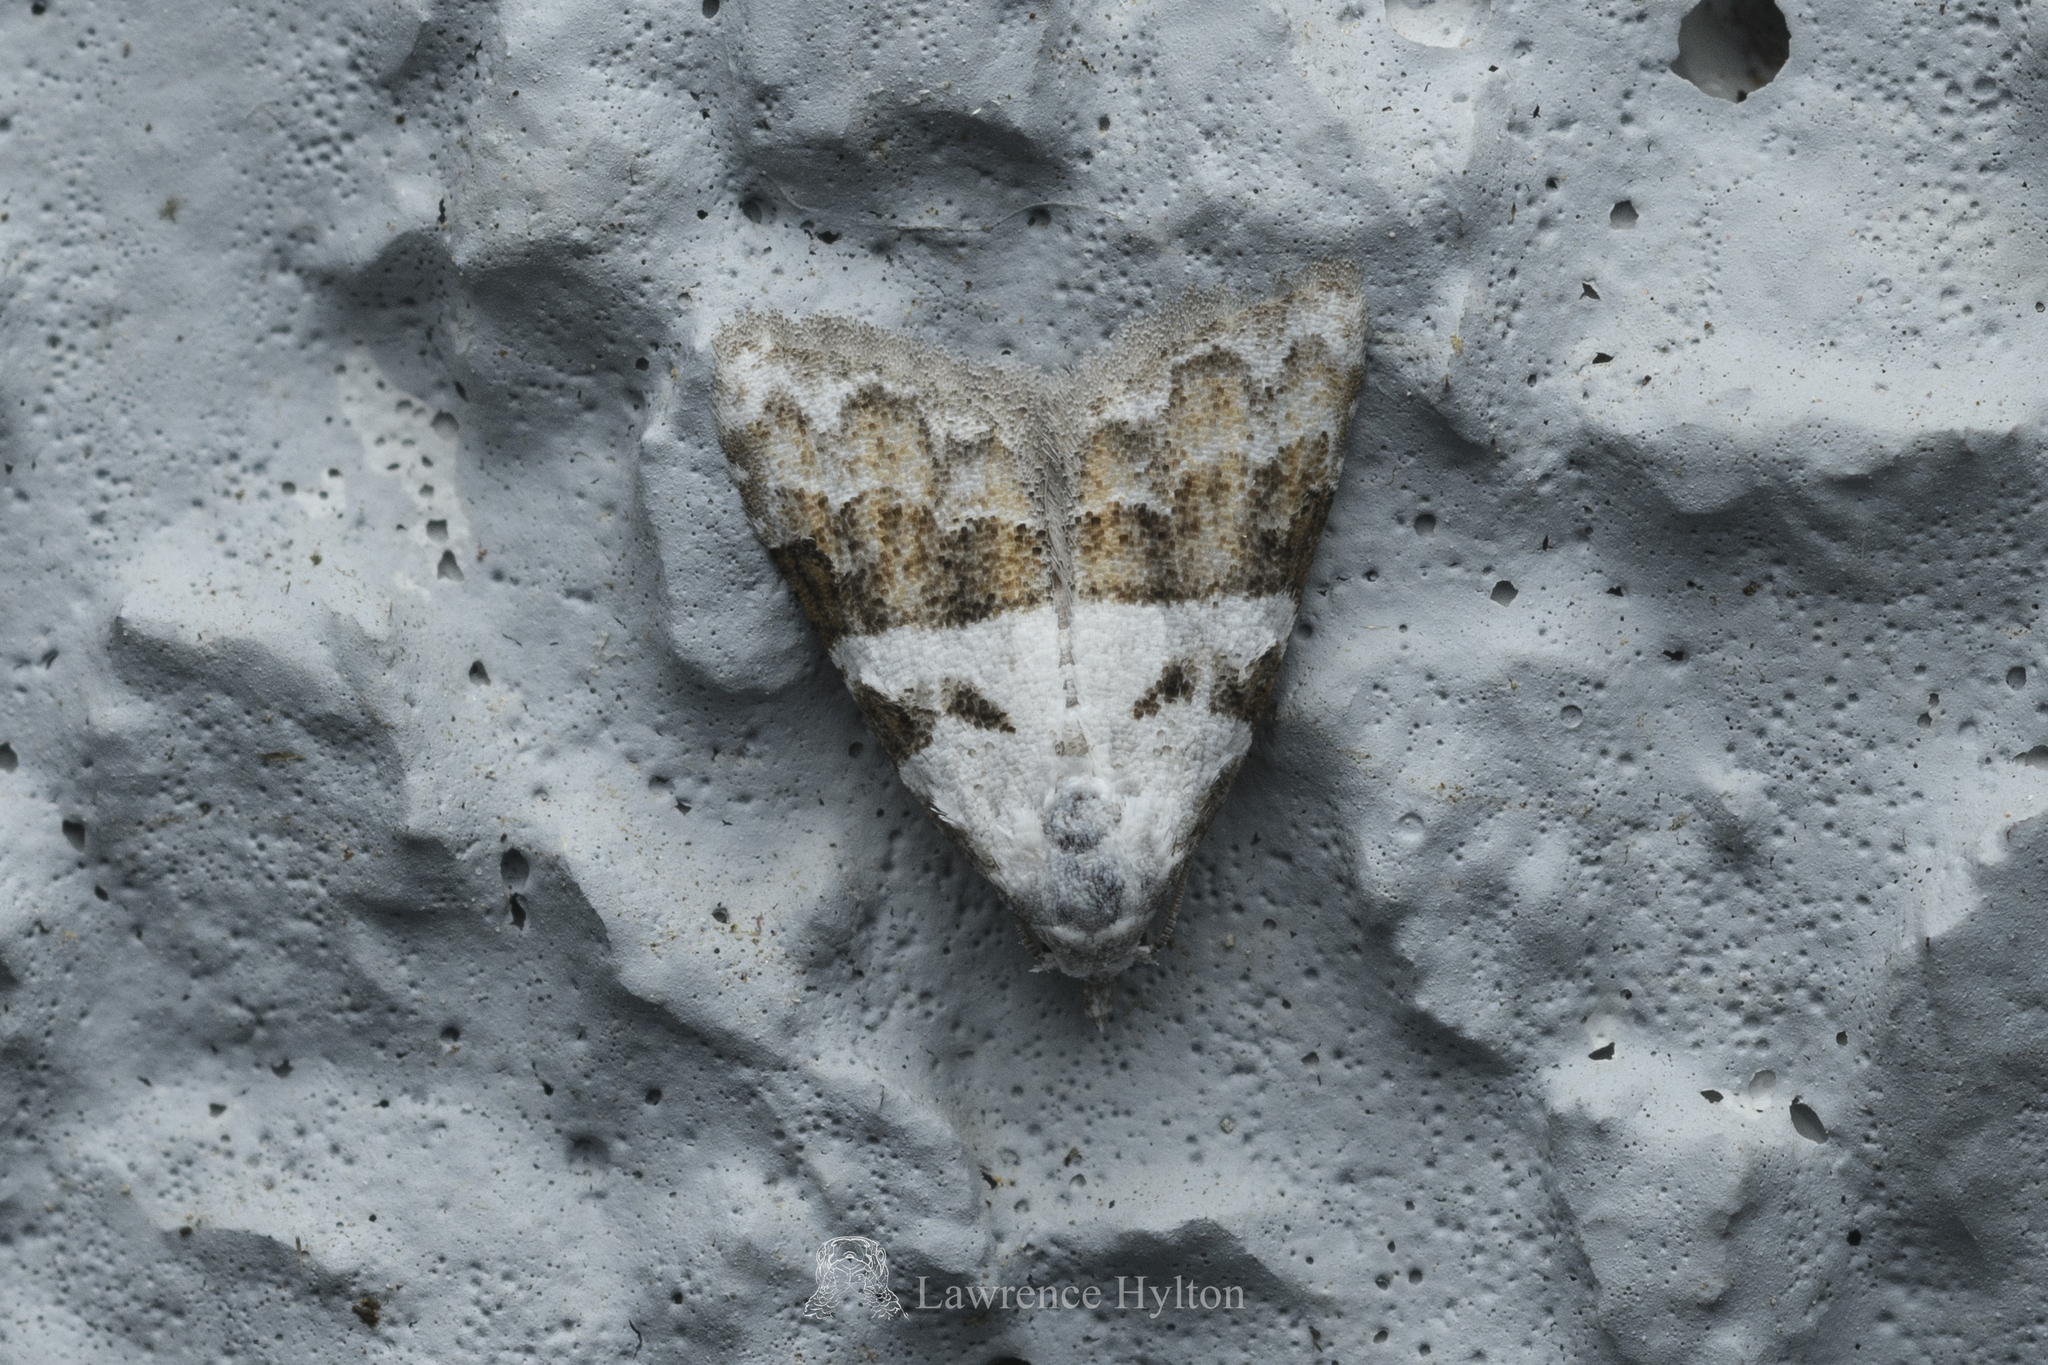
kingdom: Animalia
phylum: Arthropoda
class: Insecta
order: Lepidoptera
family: Nolidae
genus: Nola
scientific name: Nola lucidalis
